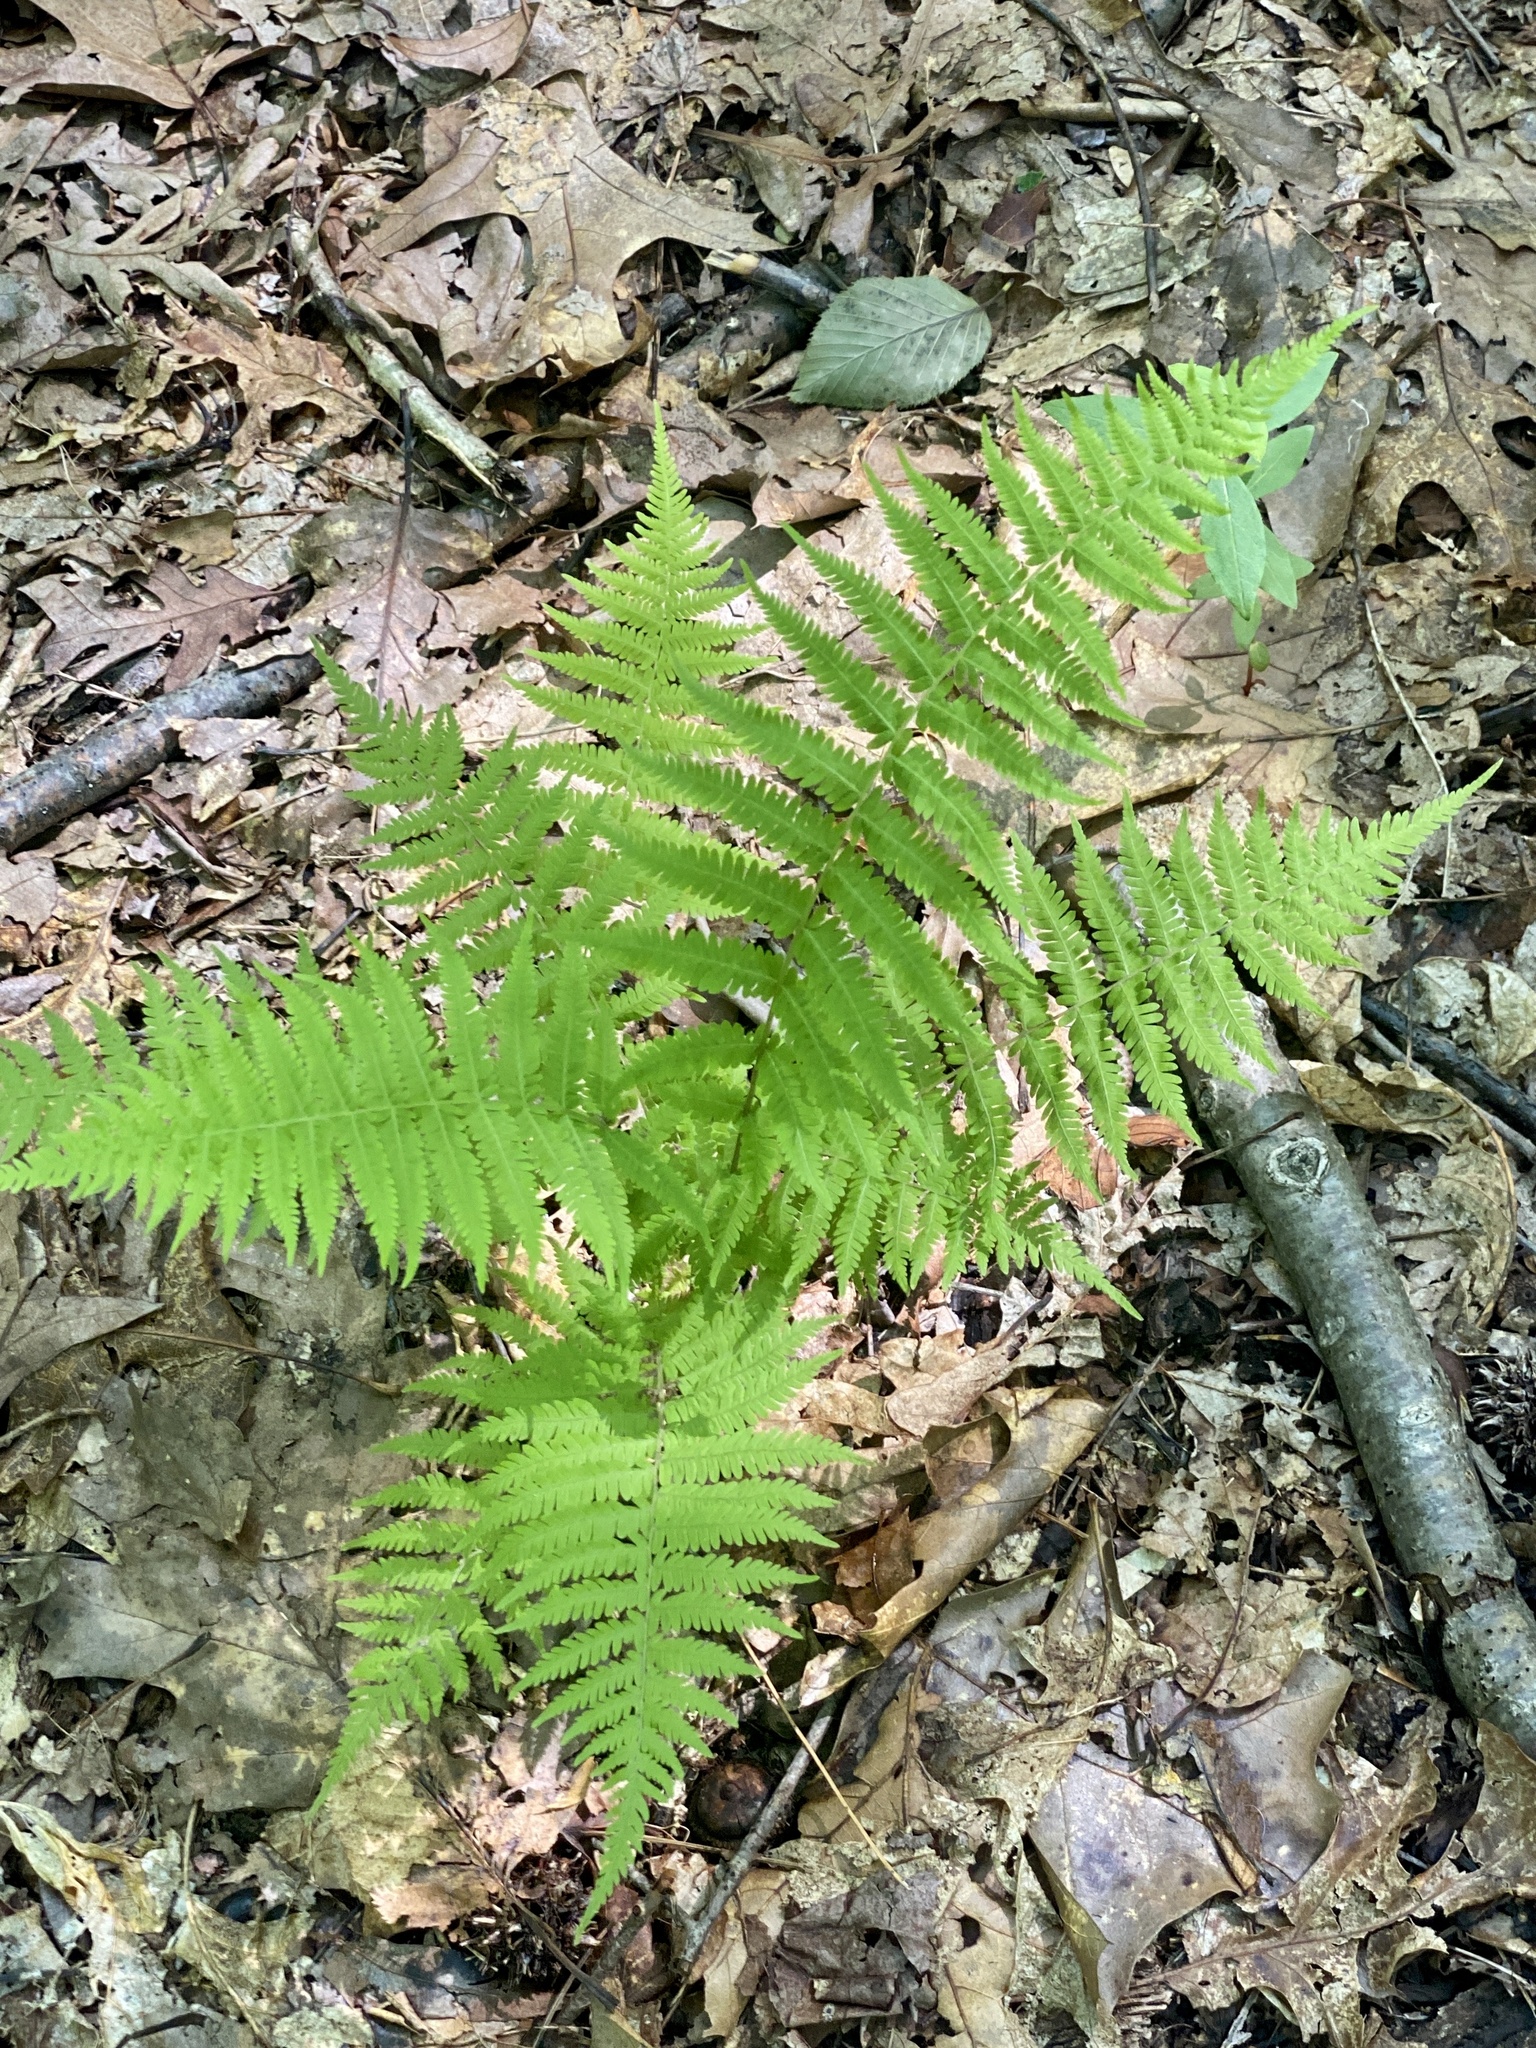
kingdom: Plantae
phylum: Tracheophyta
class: Polypodiopsida
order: Polypodiales
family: Thelypteridaceae
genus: Amauropelta
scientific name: Amauropelta noveboracensis
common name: New york fern
